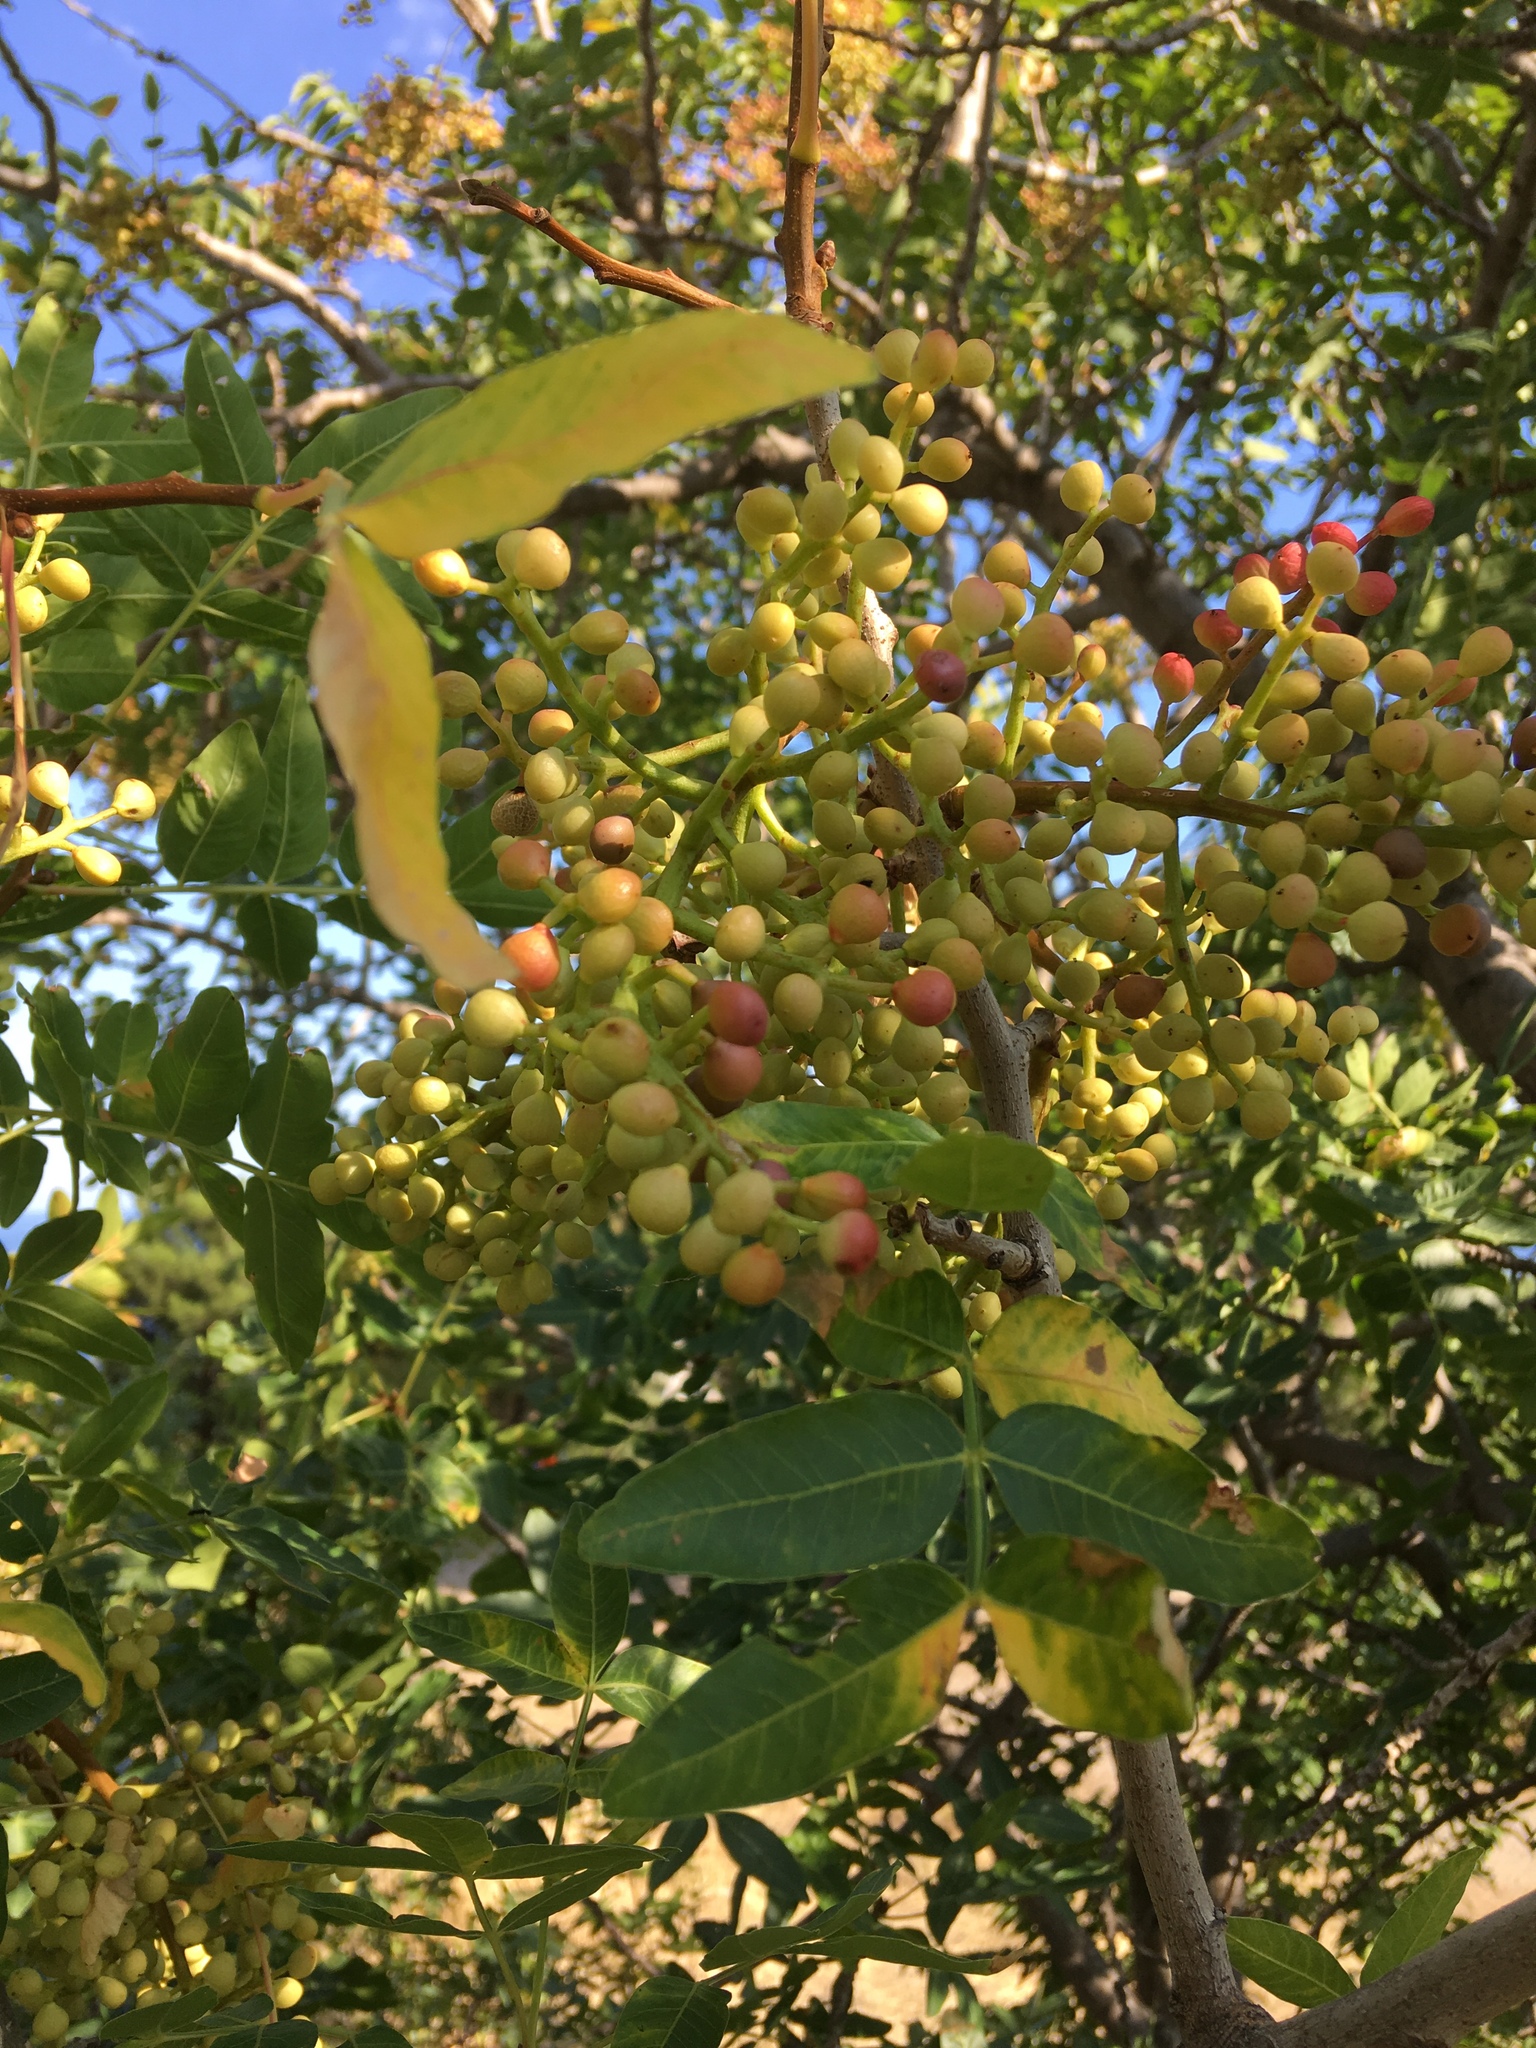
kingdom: Plantae
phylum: Tracheophyta
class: Magnoliopsida
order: Sapindales
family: Anacardiaceae
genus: Pistacia
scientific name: Pistacia atlantica
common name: Mt. atlas mastic tree
